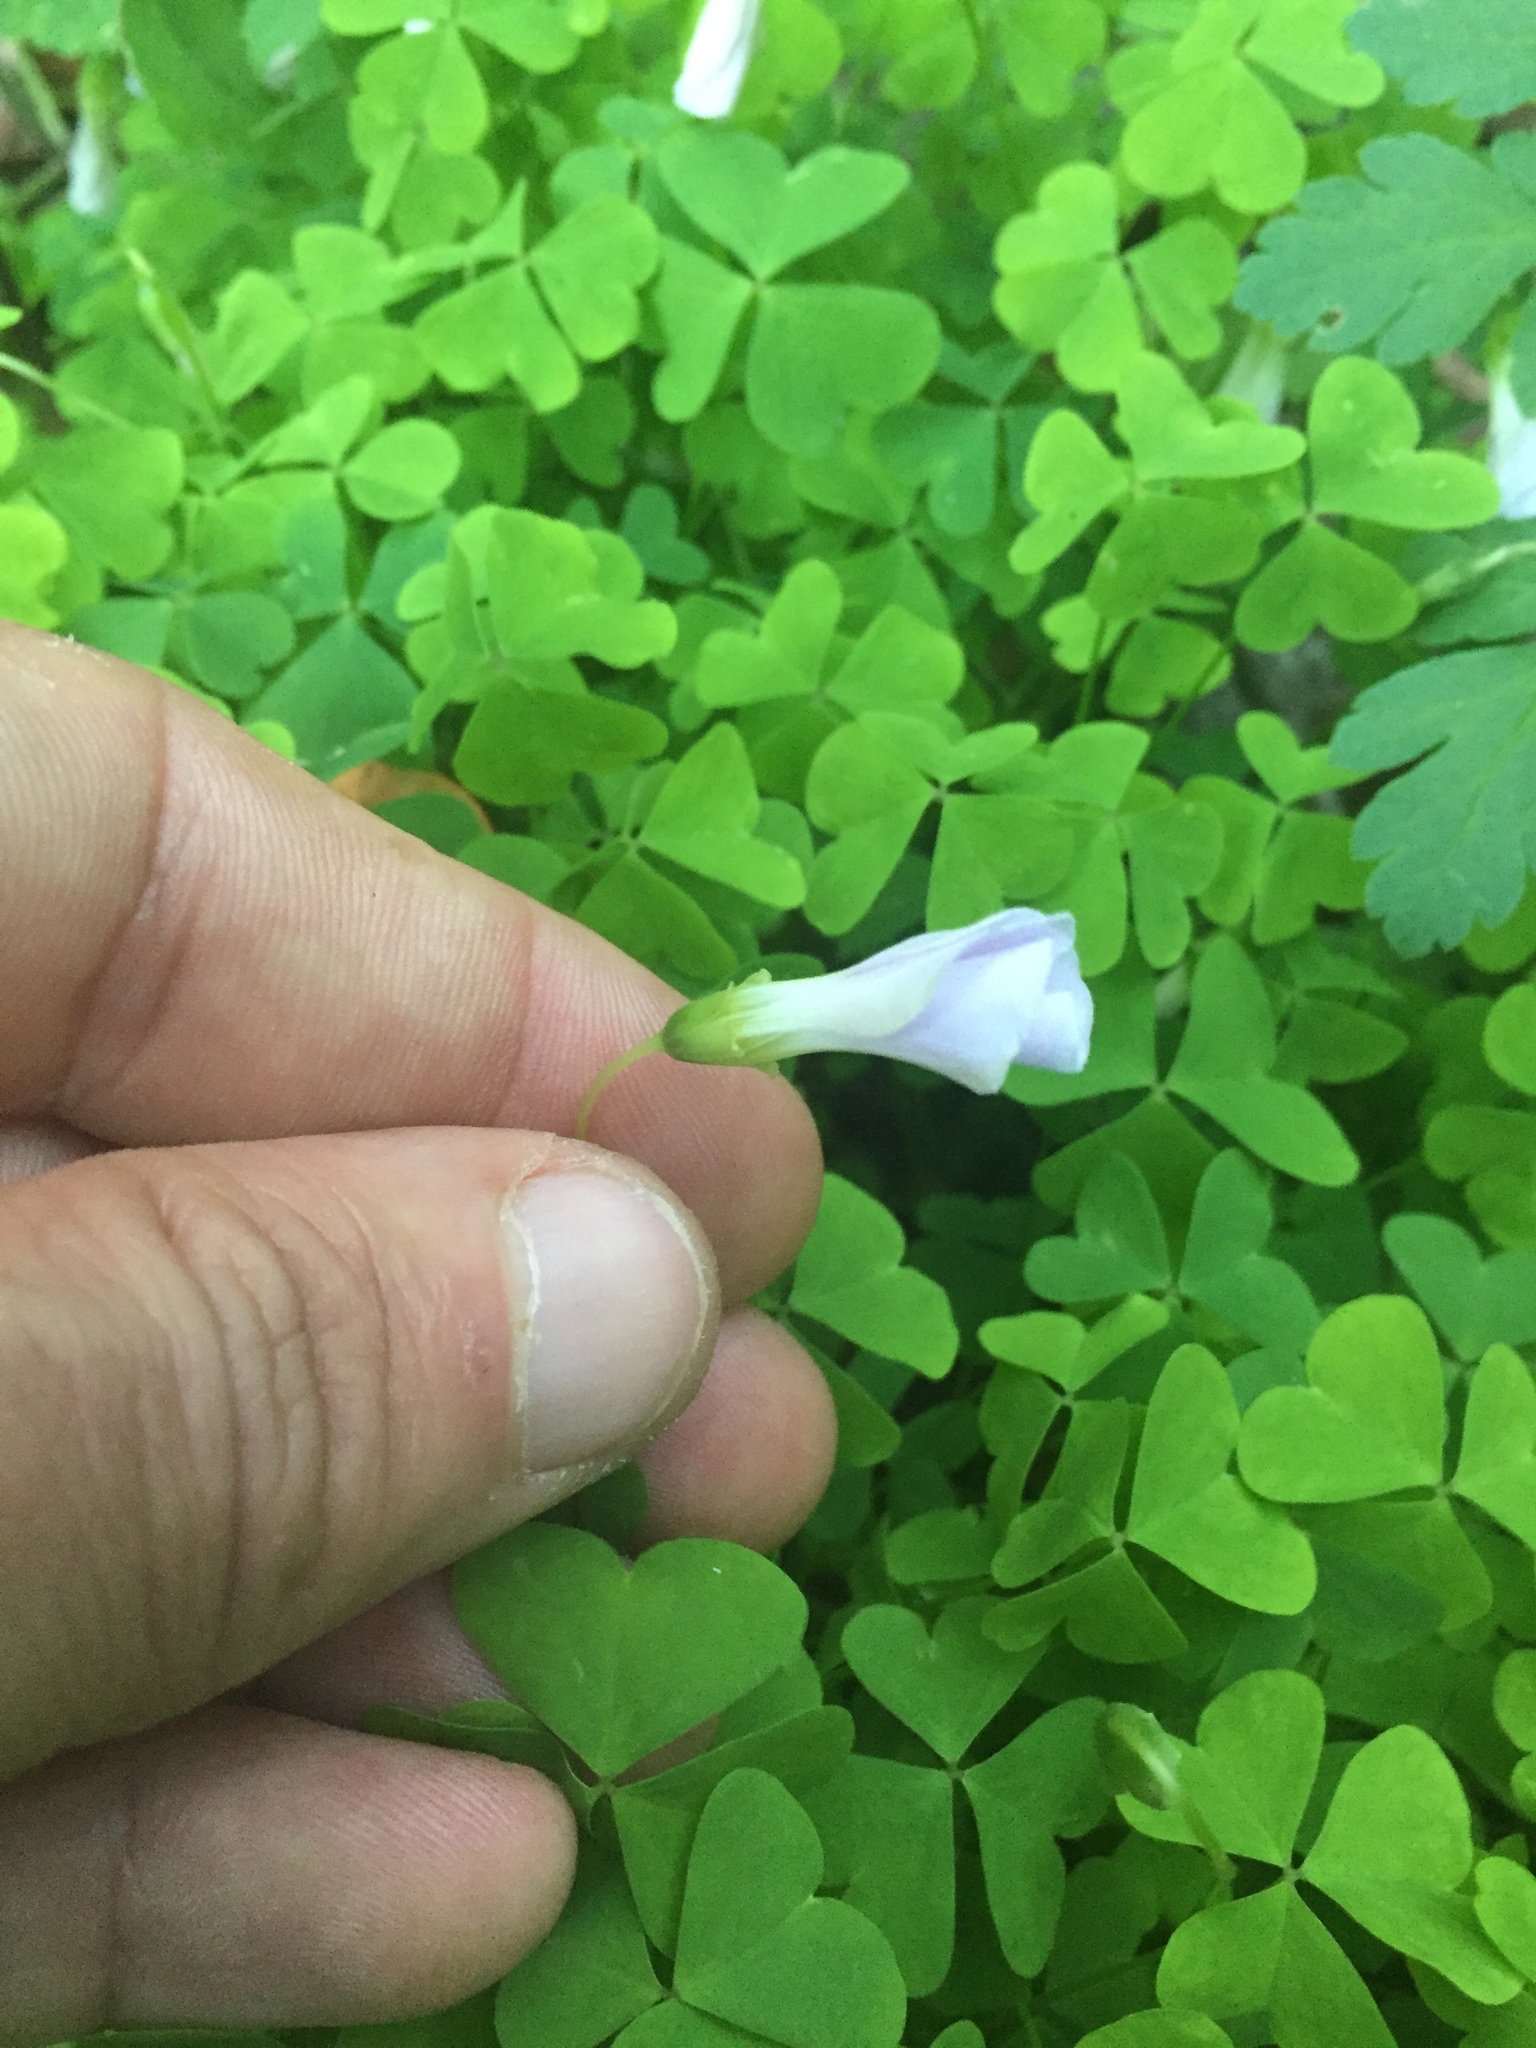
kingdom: Plantae
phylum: Tracheophyta
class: Magnoliopsida
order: Oxalidales
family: Oxalidaceae
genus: Oxalis
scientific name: Oxalis incarnata
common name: Pale pink-sorrel
